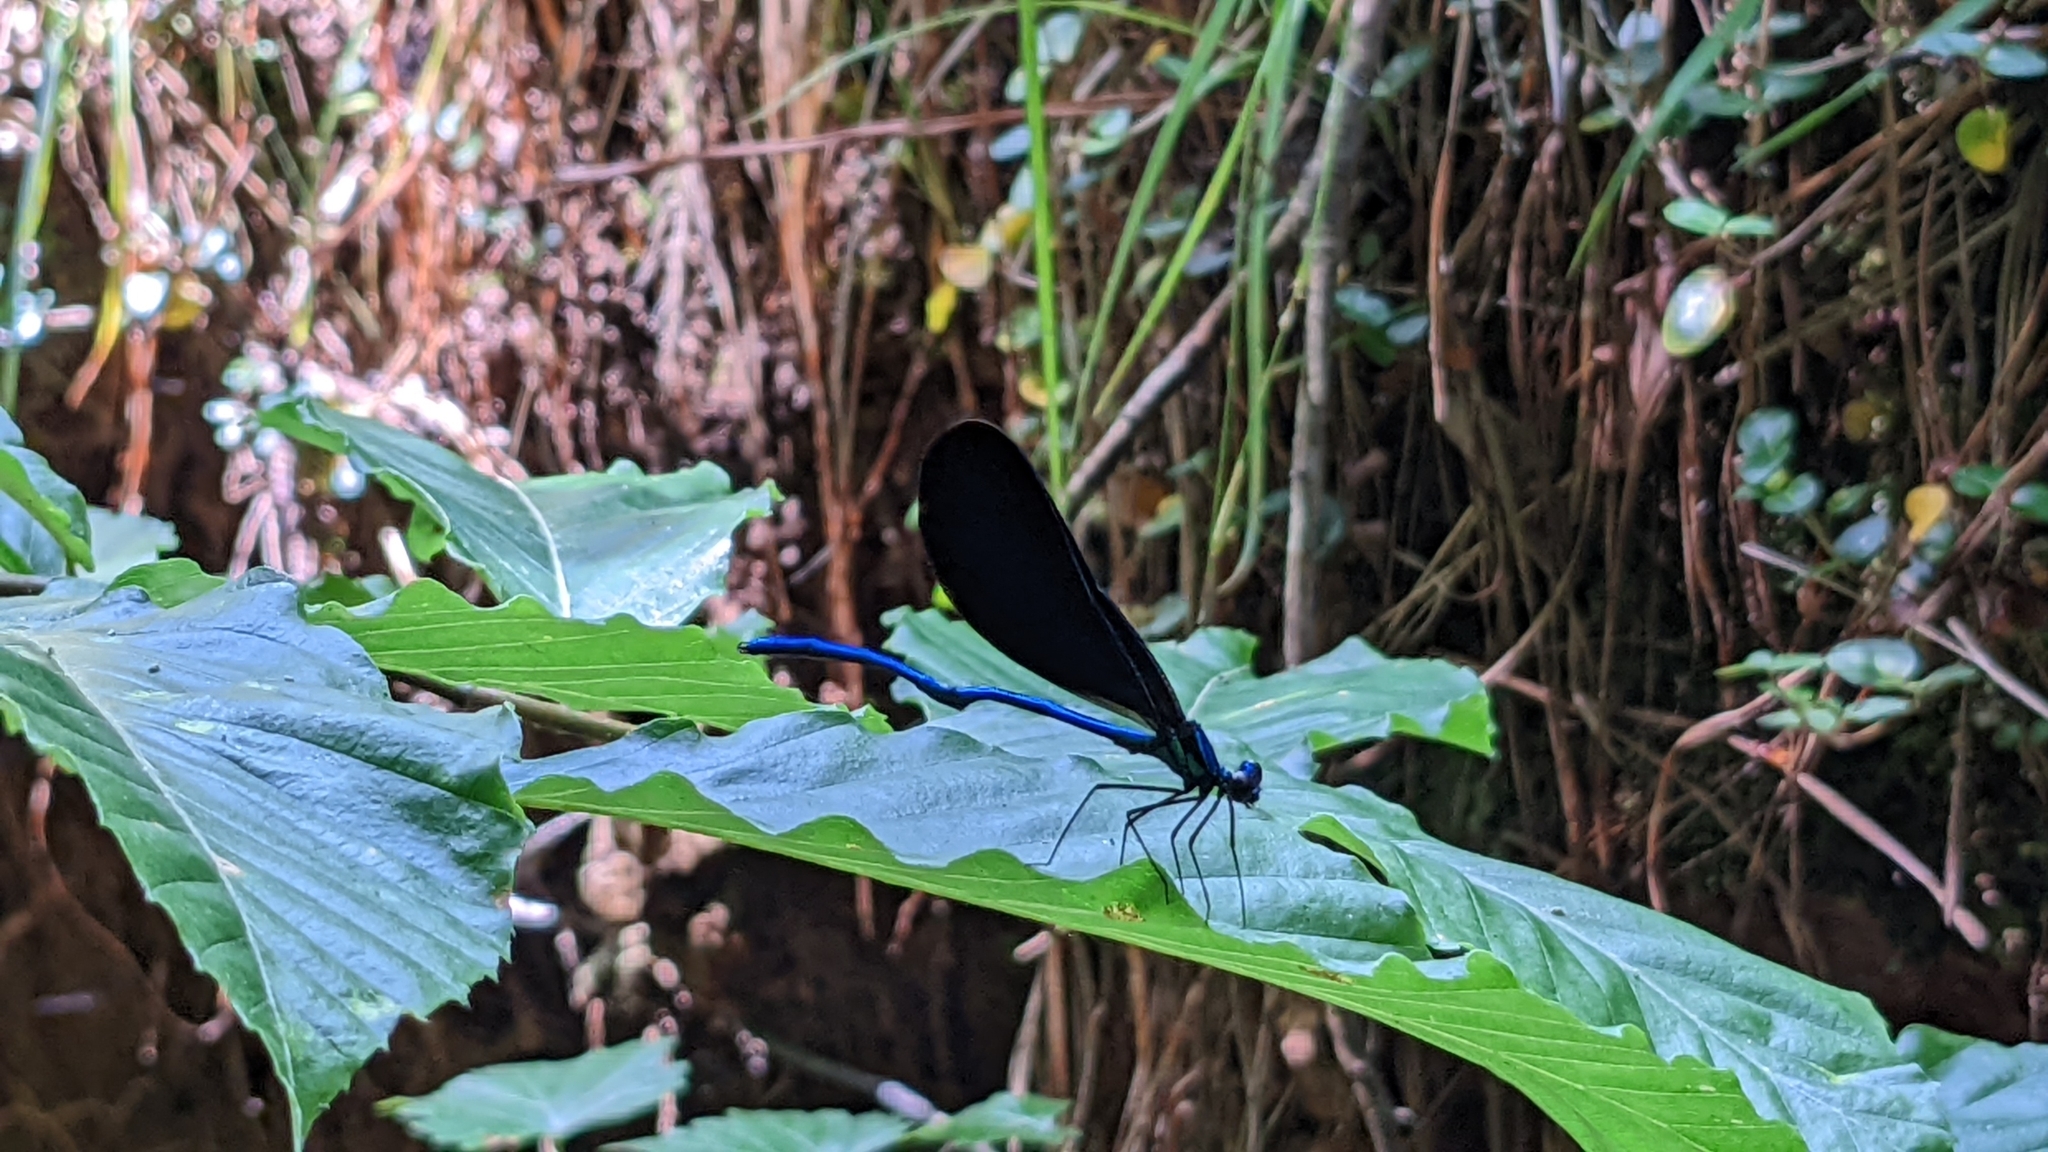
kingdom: Animalia
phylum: Arthropoda
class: Insecta
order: Odonata
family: Calopterygidae
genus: Calopteryx
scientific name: Calopteryx maculata
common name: Ebony jewelwing
